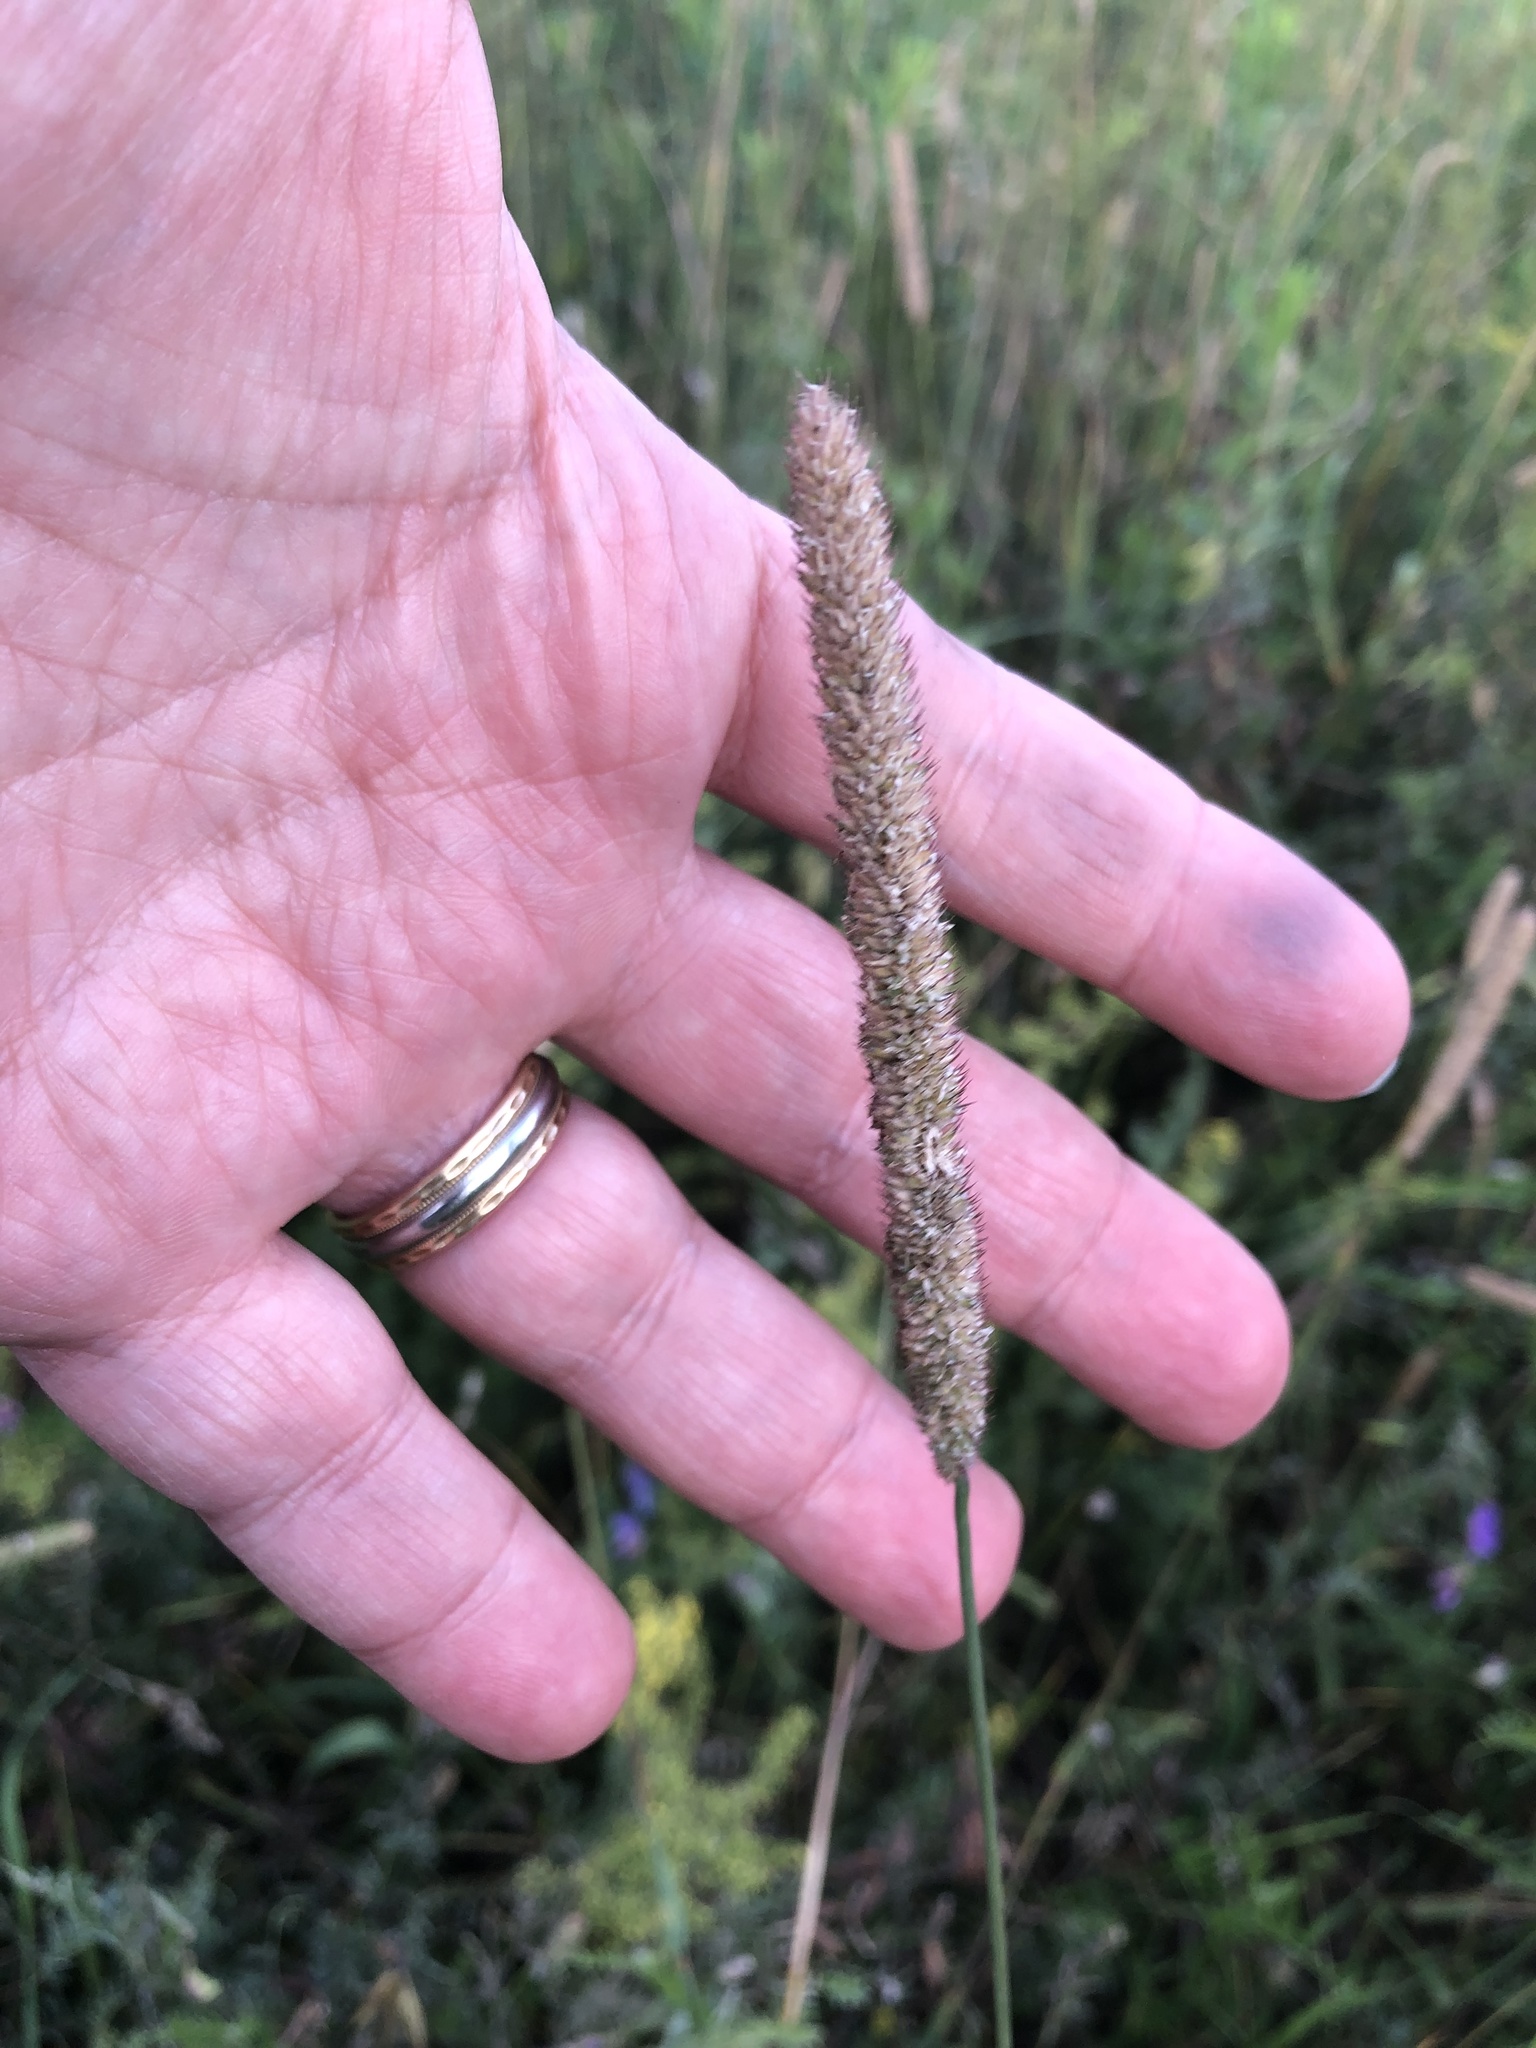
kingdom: Plantae
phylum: Tracheophyta
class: Liliopsida
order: Poales
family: Poaceae
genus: Phleum
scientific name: Phleum pratense
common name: Timothy grass
